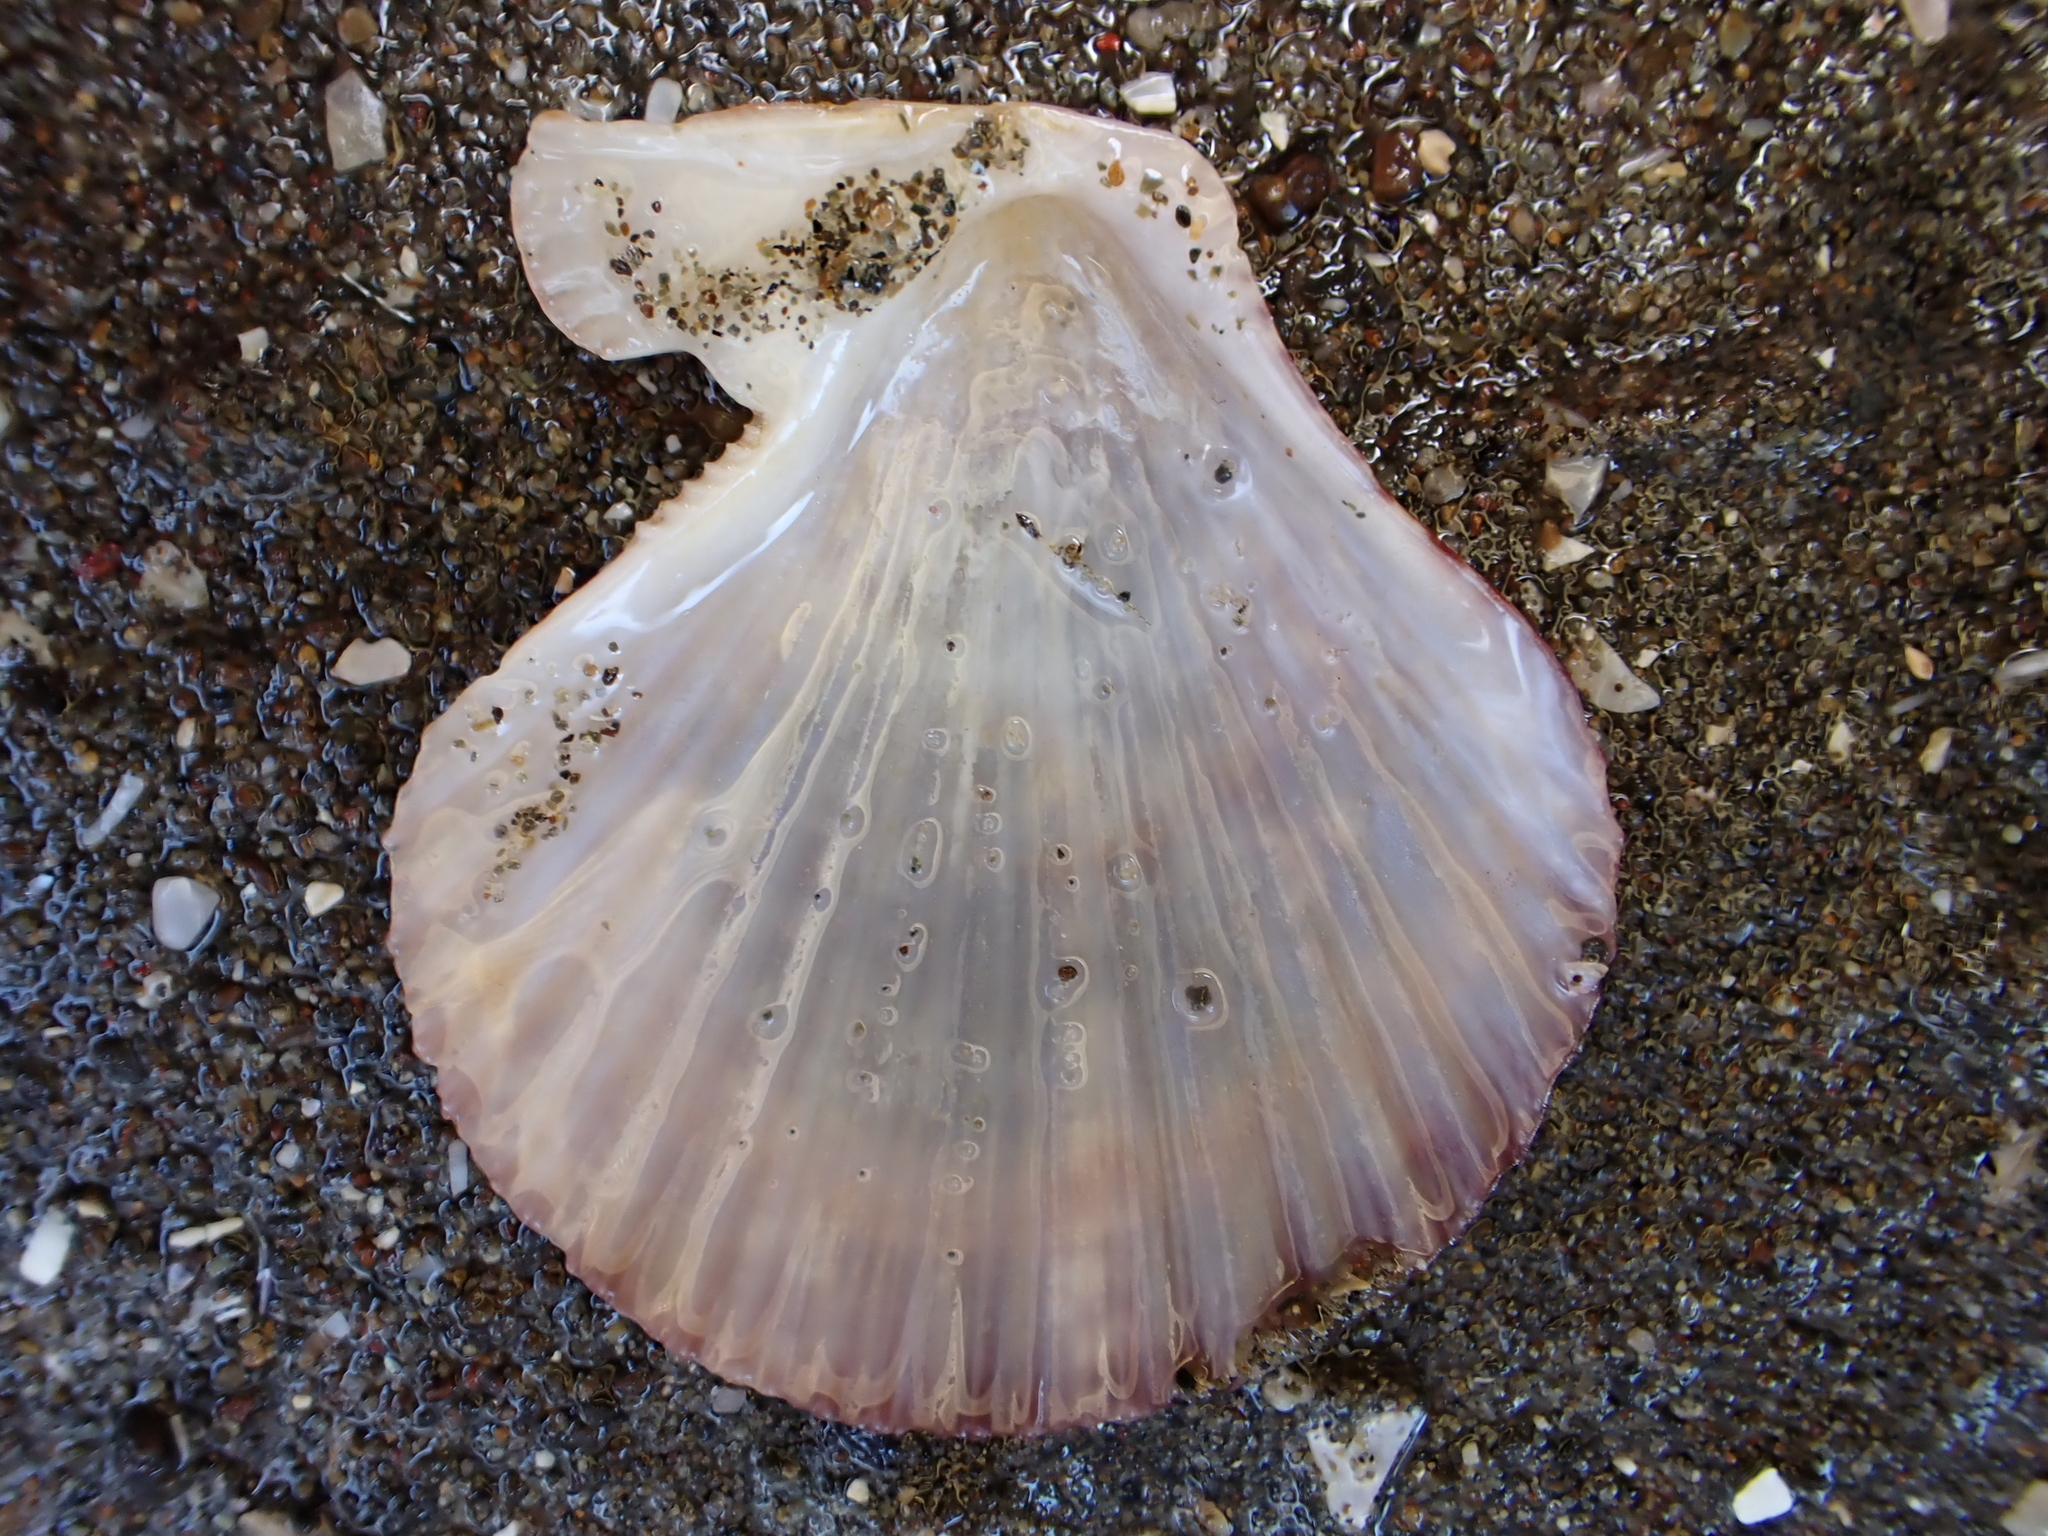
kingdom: Animalia
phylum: Mollusca
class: Bivalvia
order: Pectinida
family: Pectinidae
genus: Talochlamys
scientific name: Talochlamys zelandiae
